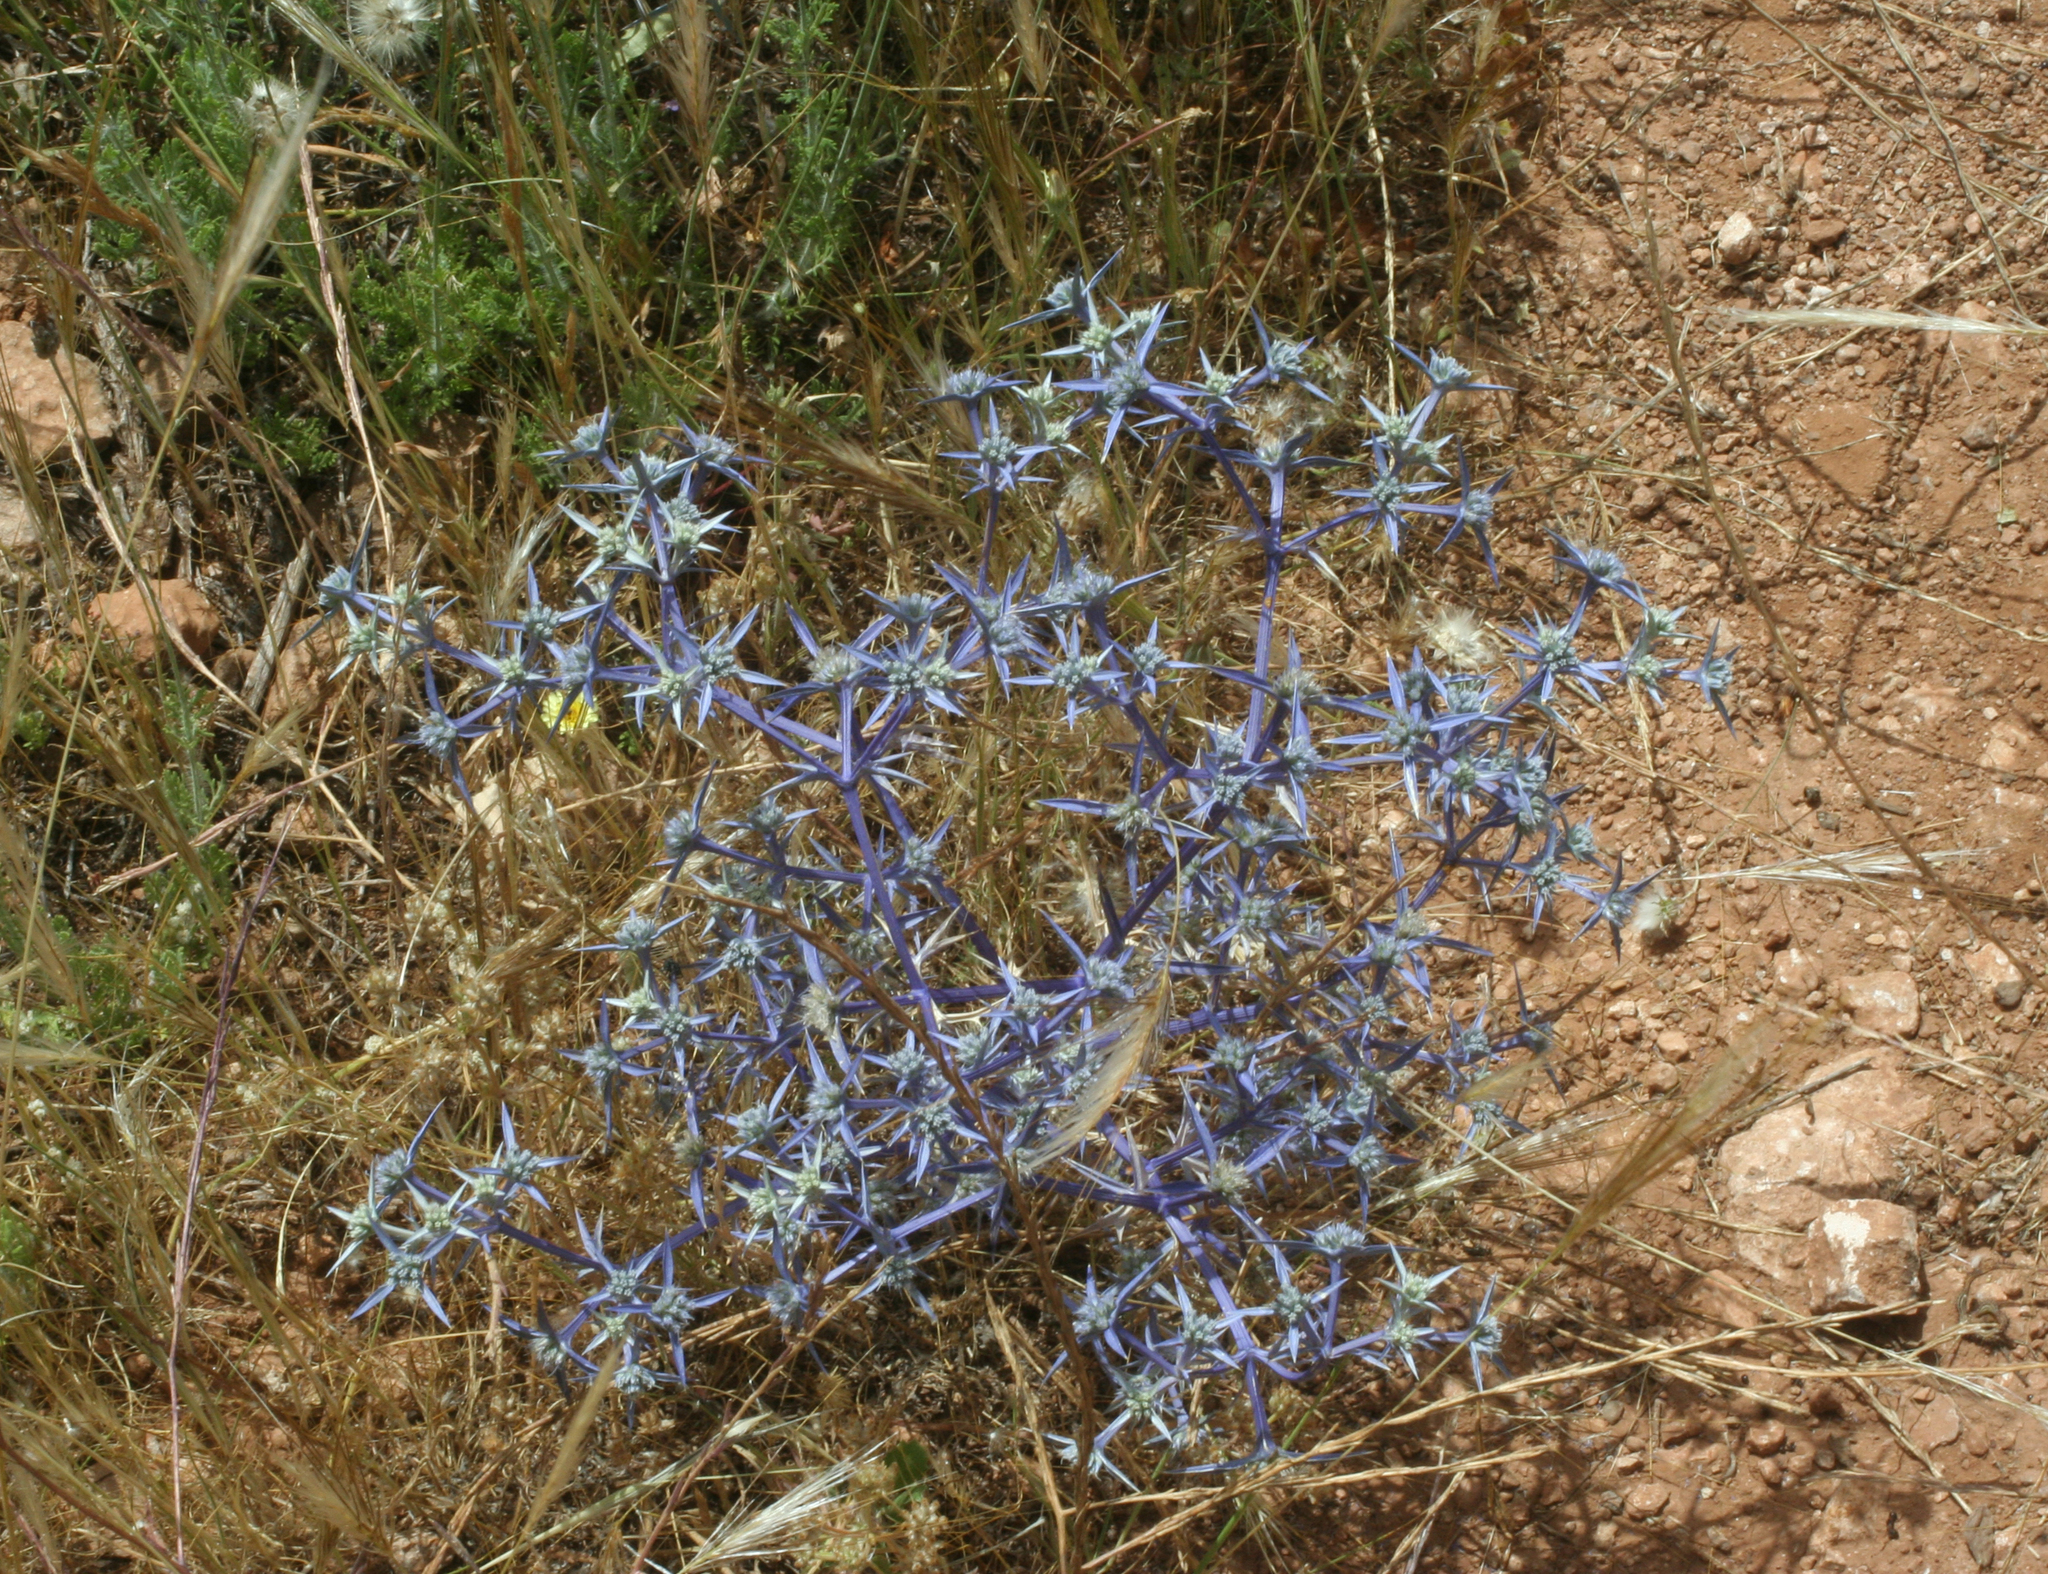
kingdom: Plantae
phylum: Tracheophyta
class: Magnoliopsida
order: Apiales
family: Apiaceae
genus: Eryngium
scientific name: Eryngium triquetrum
